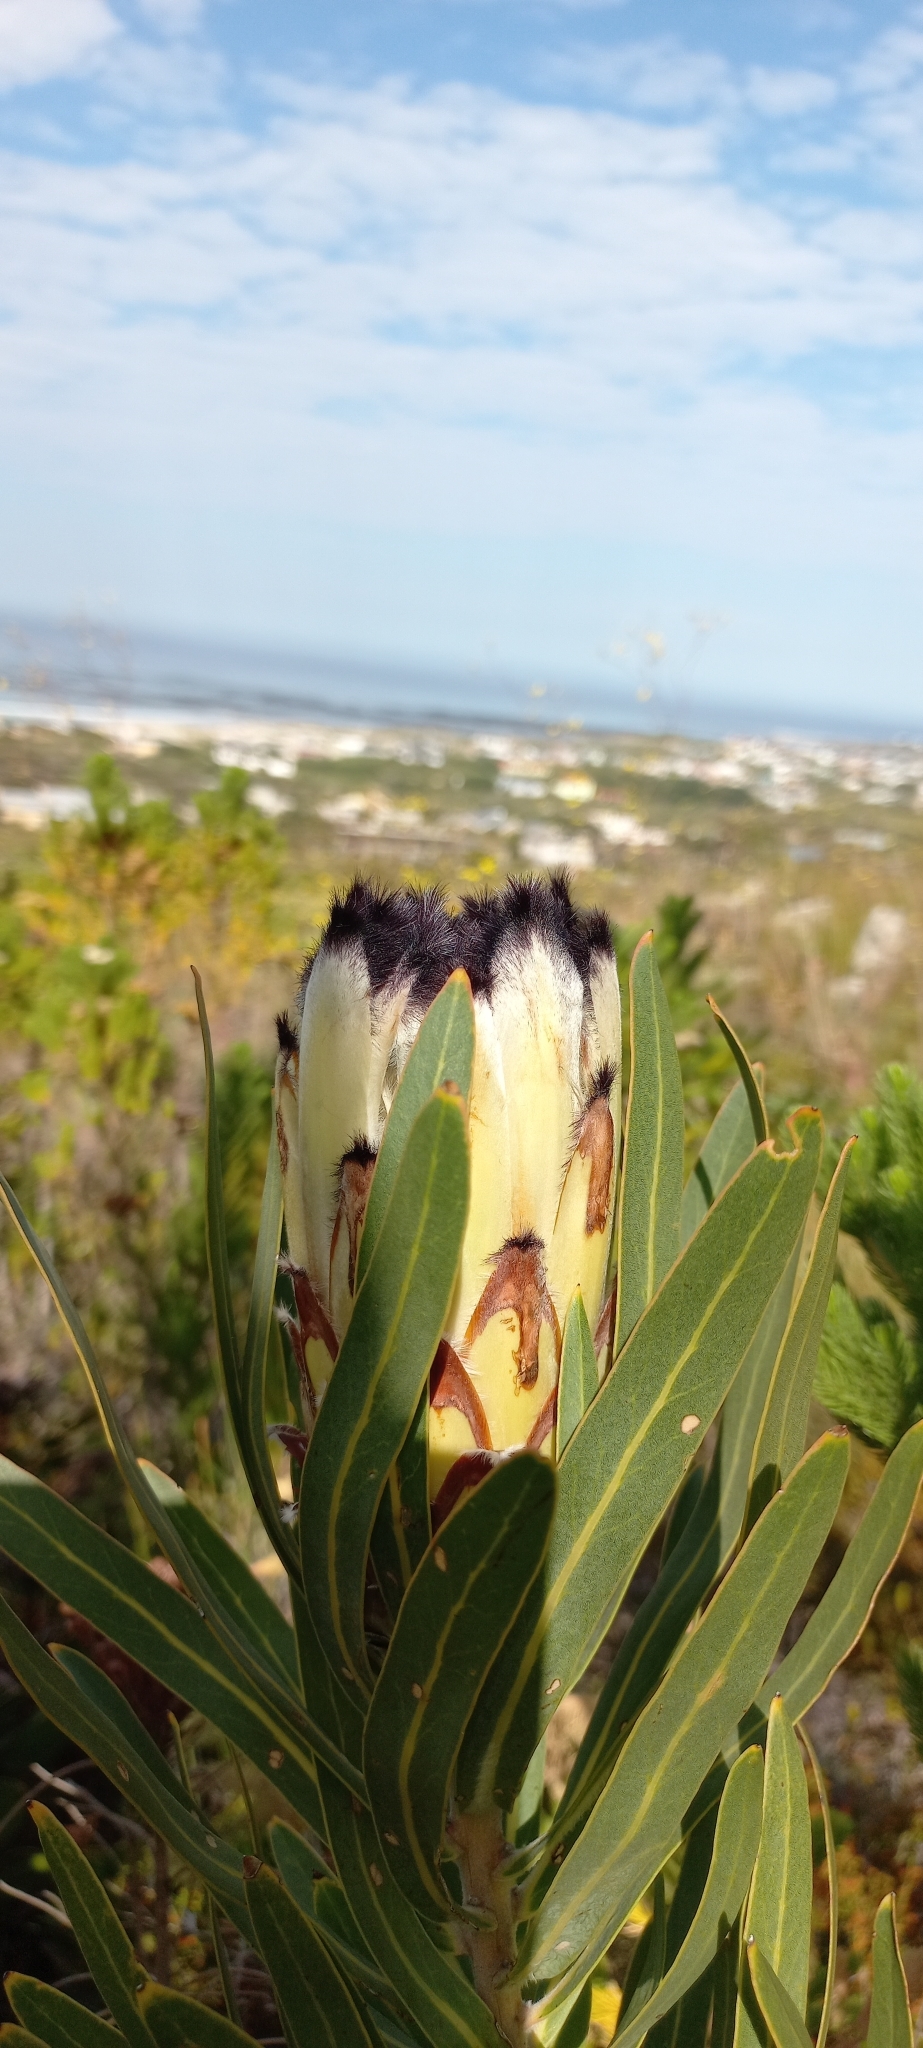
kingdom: Plantae
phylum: Tracheophyta
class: Magnoliopsida
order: Proteales
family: Proteaceae
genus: Protea
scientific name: Protea
